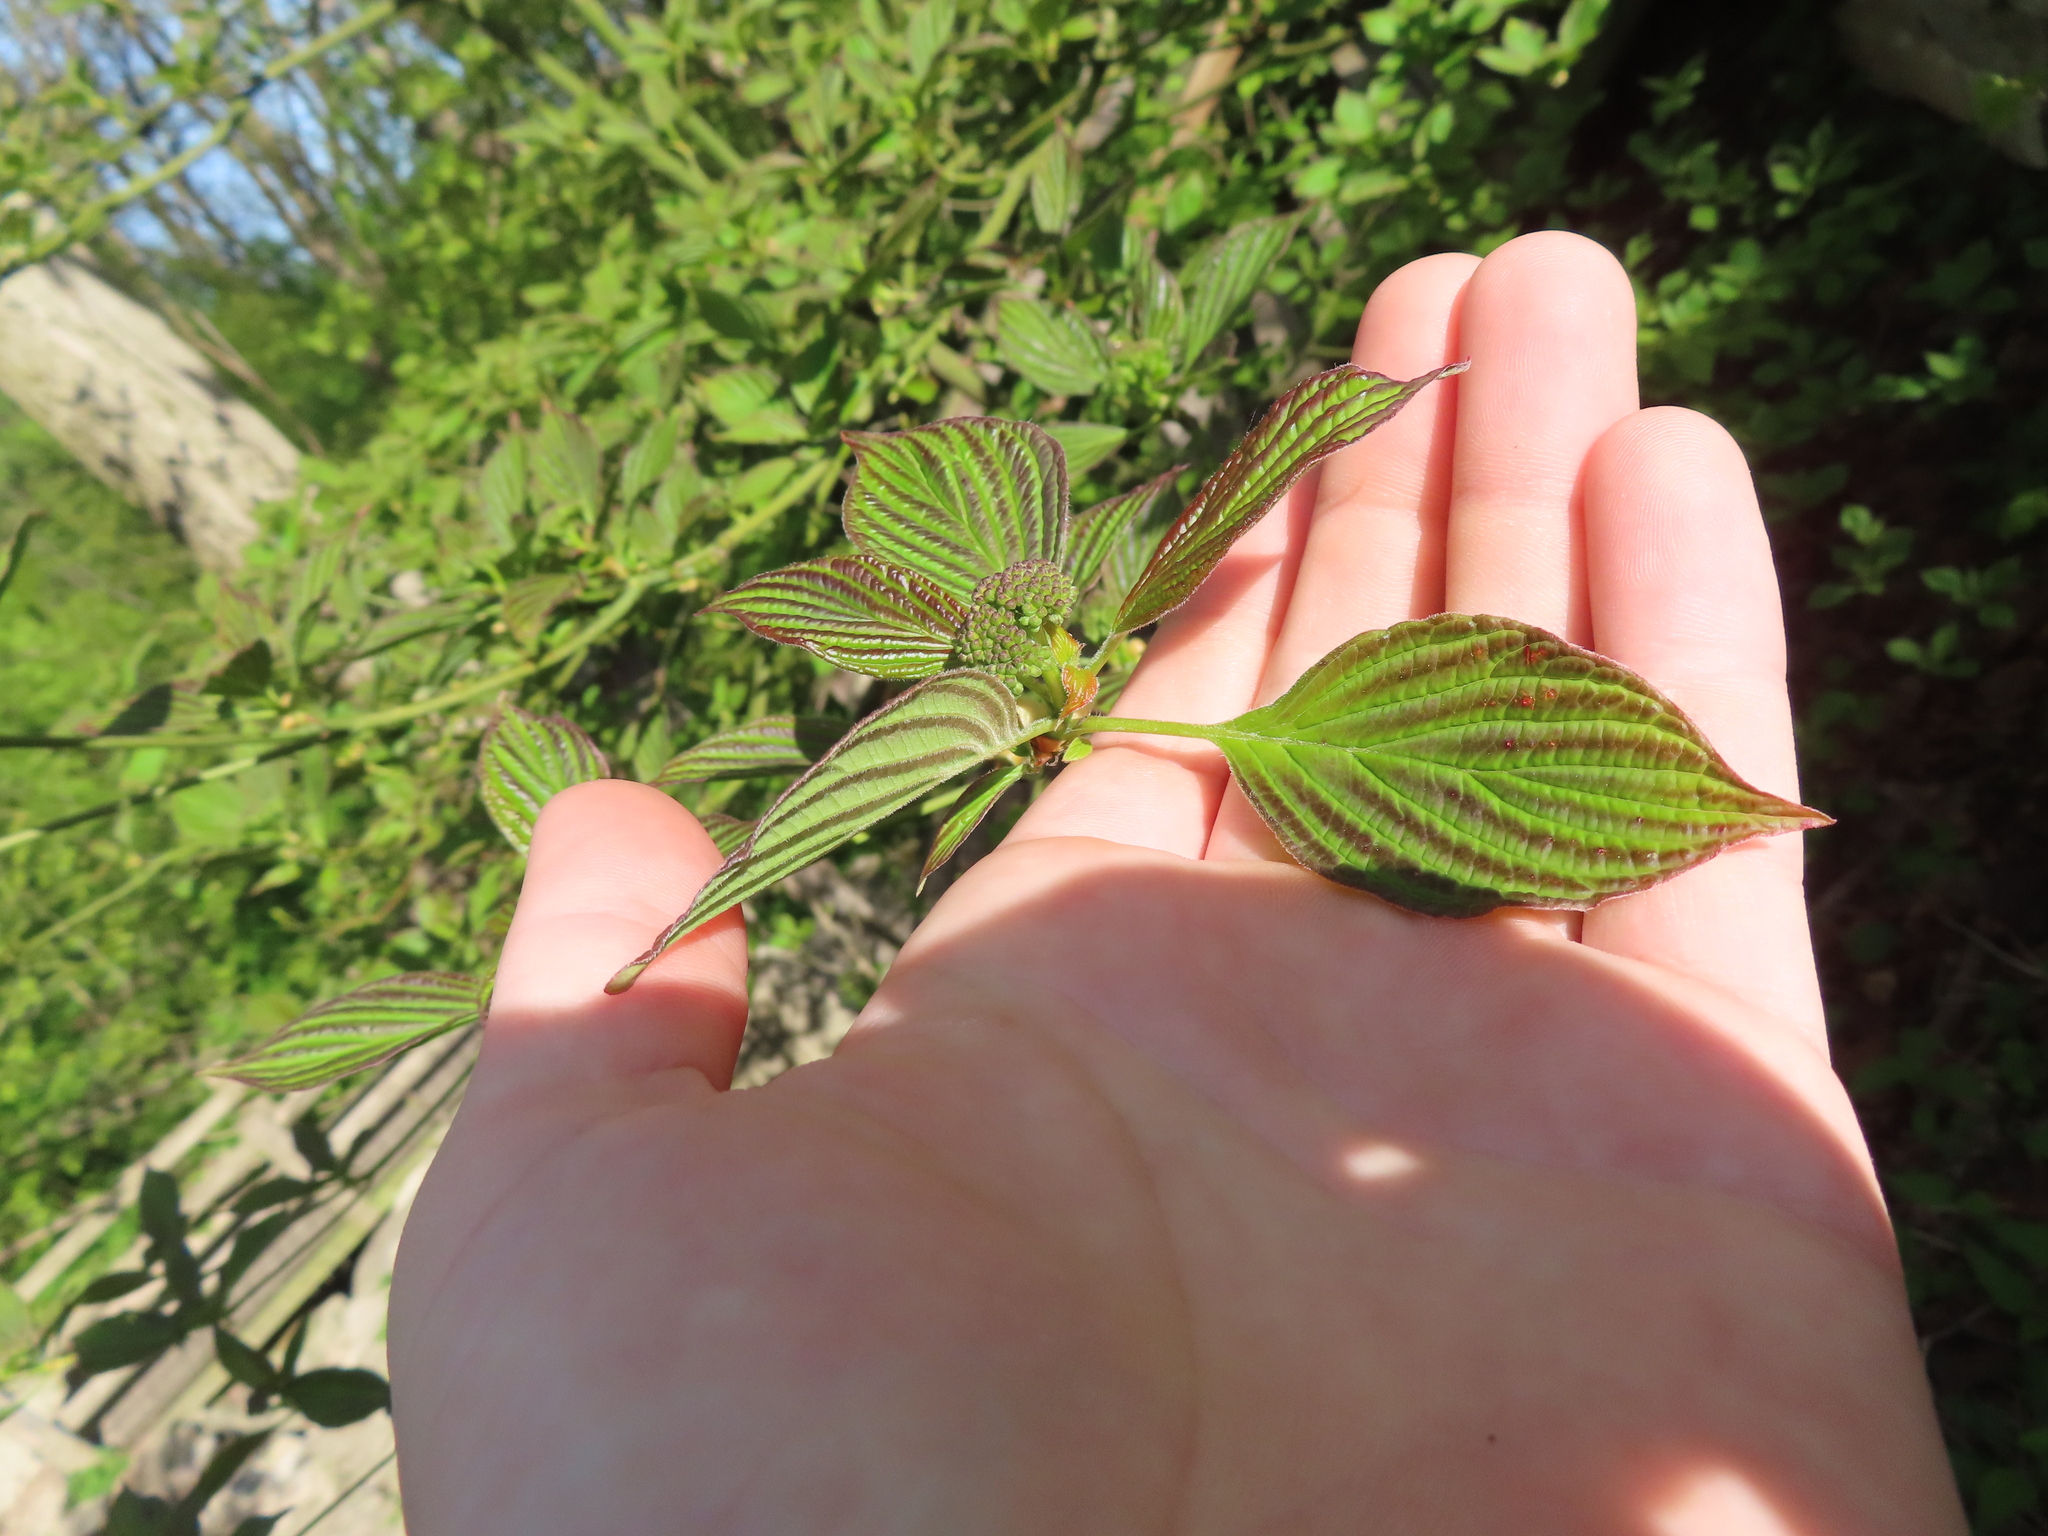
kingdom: Plantae
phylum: Tracheophyta
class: Magnoliopsida
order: Cornales
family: Cornaceae
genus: Cornus
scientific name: Cornus alternifolia
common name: Pagoda dogwood
